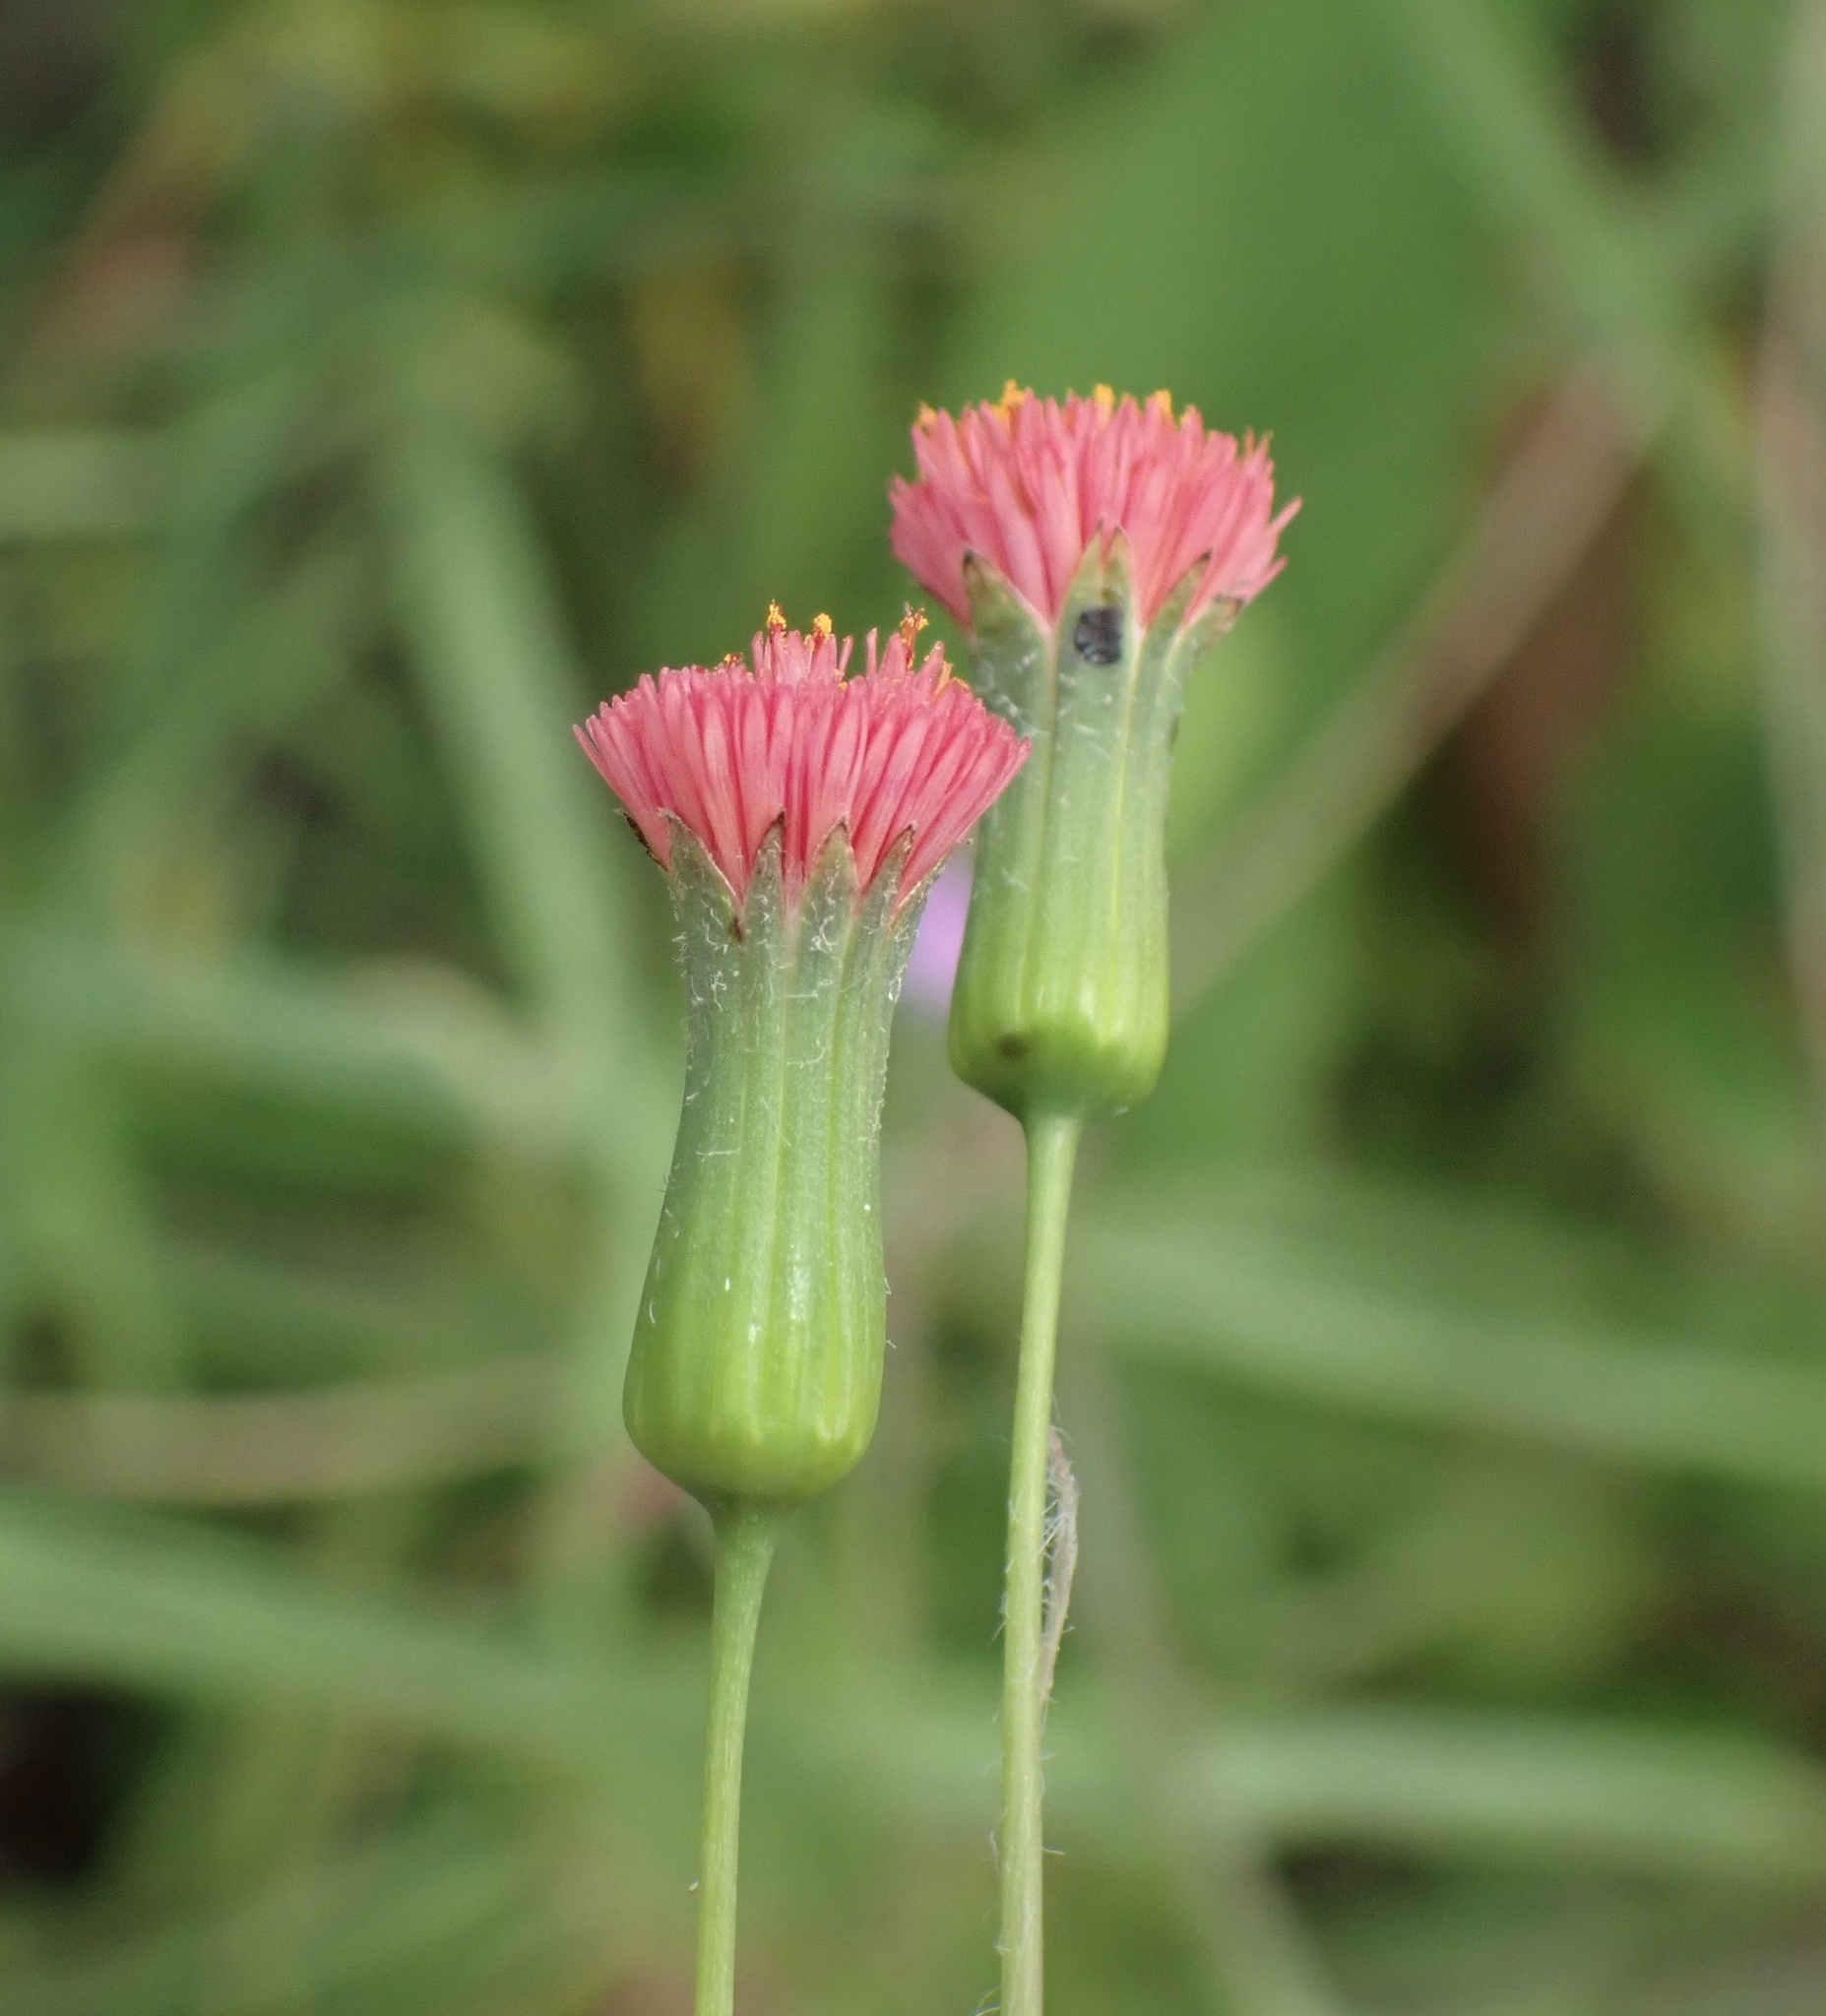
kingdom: Plantae
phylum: Tracheophyta
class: Magnoliopsida
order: Asterales
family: Asteraceae
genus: Emilia
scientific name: Emilia fosbergii
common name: Florida tasselflower
